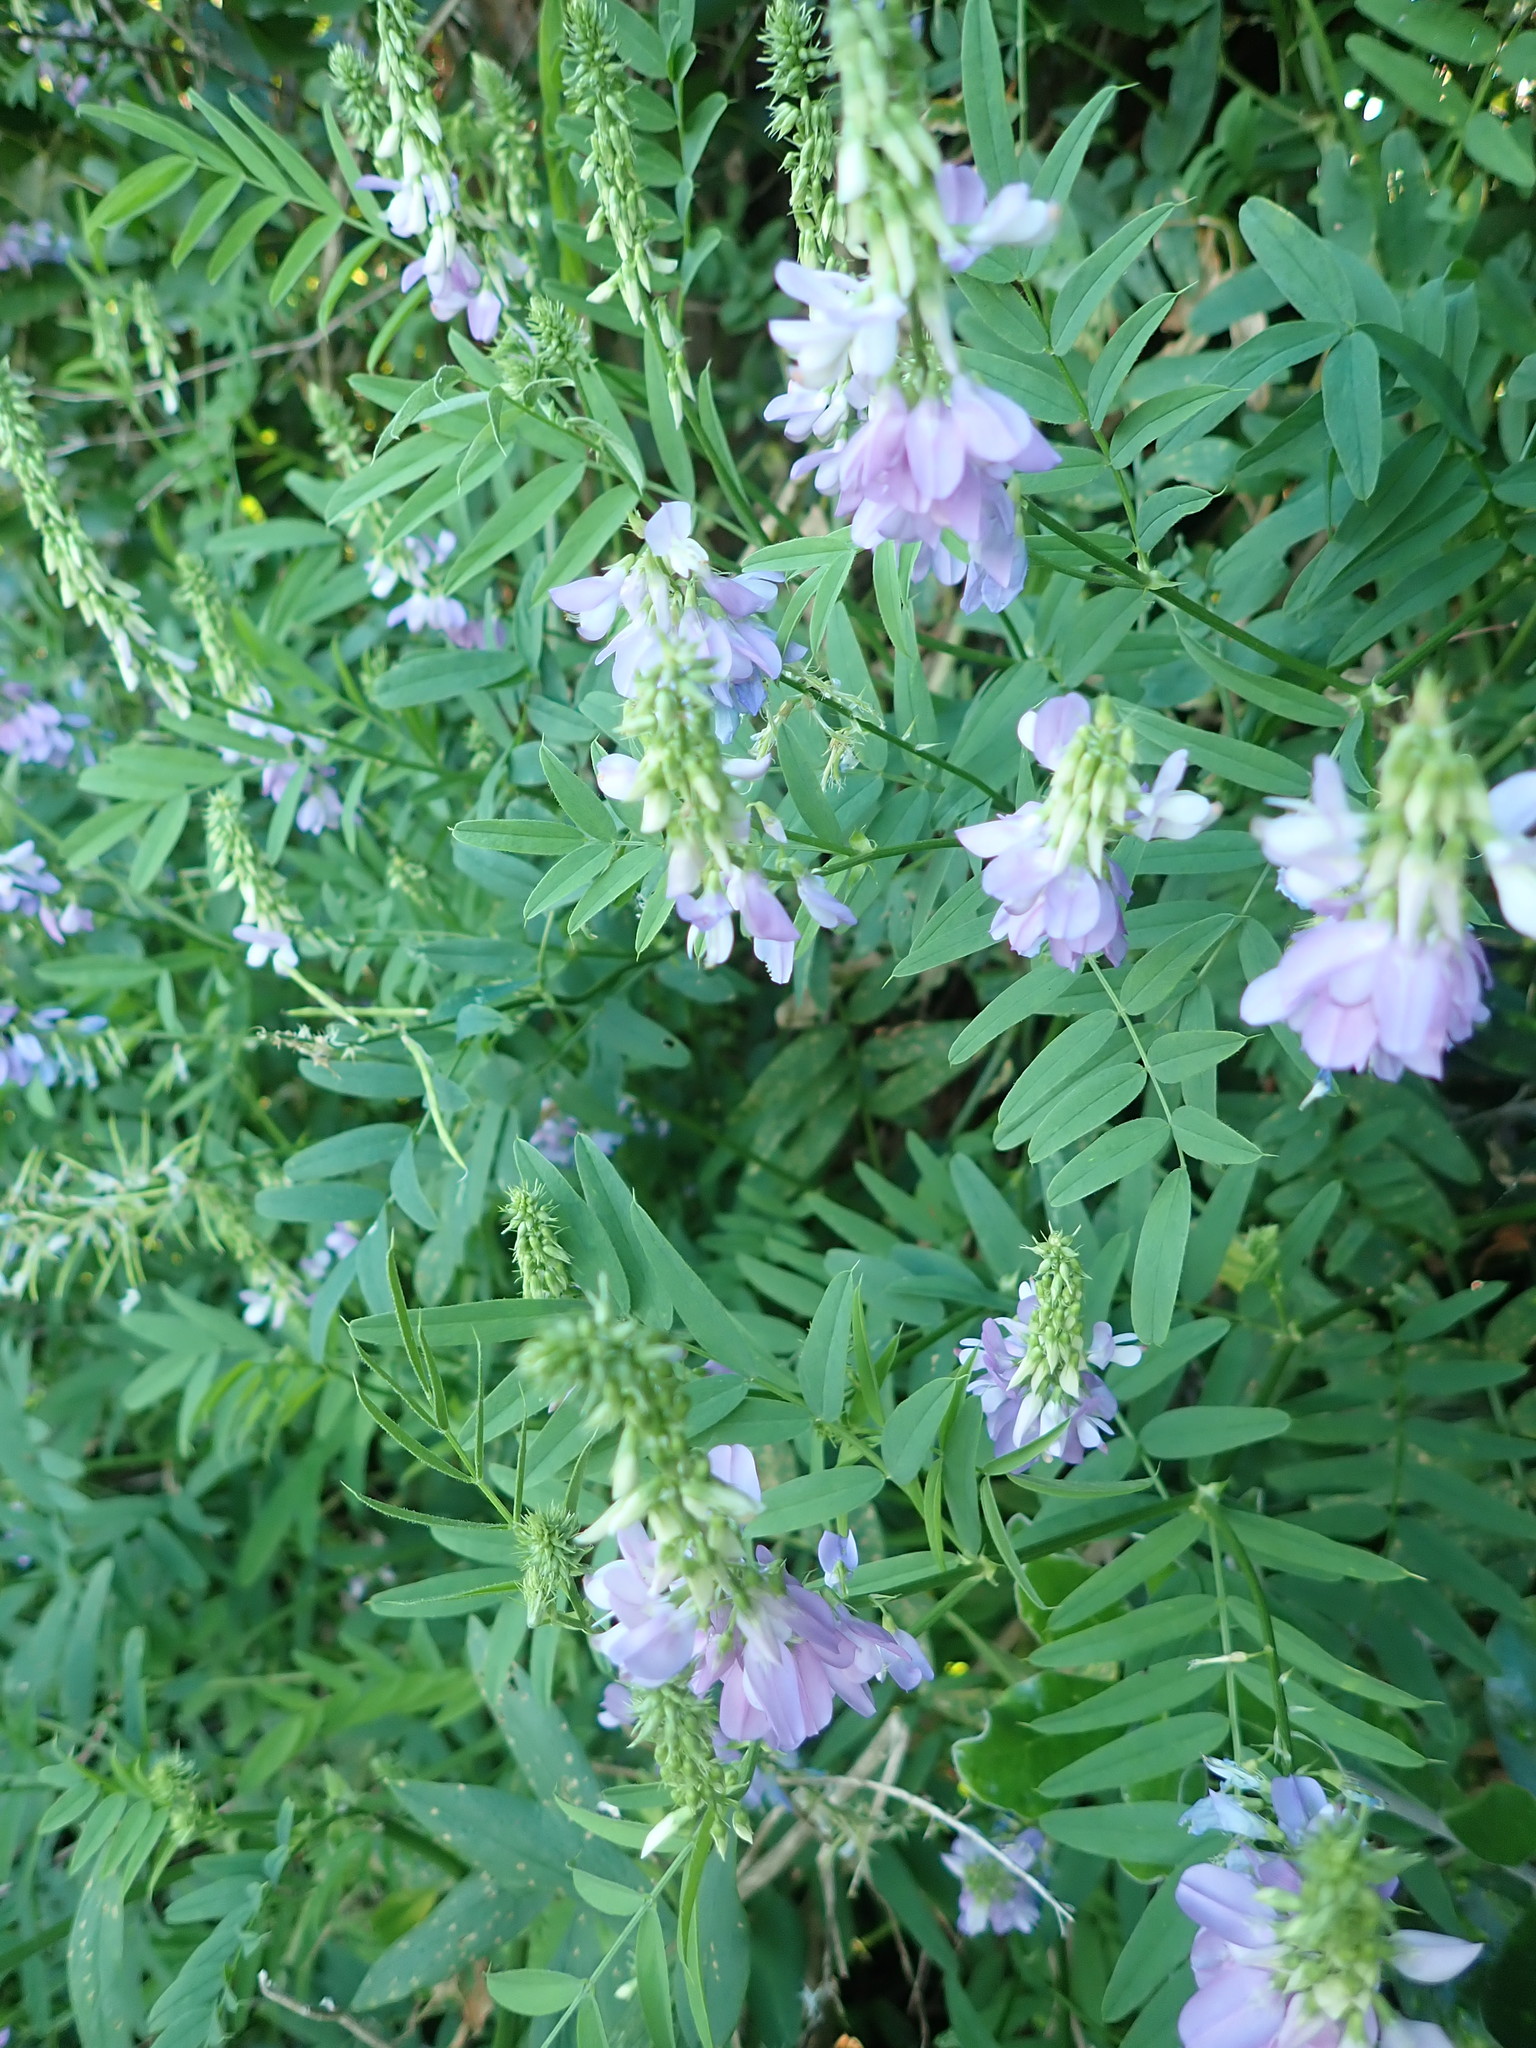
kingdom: Plantae
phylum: Tracheophyta
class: Magnoliopsida
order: Fabales
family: Fabaceae
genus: Galega
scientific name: Galega officinalis
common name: Goat's-rue
